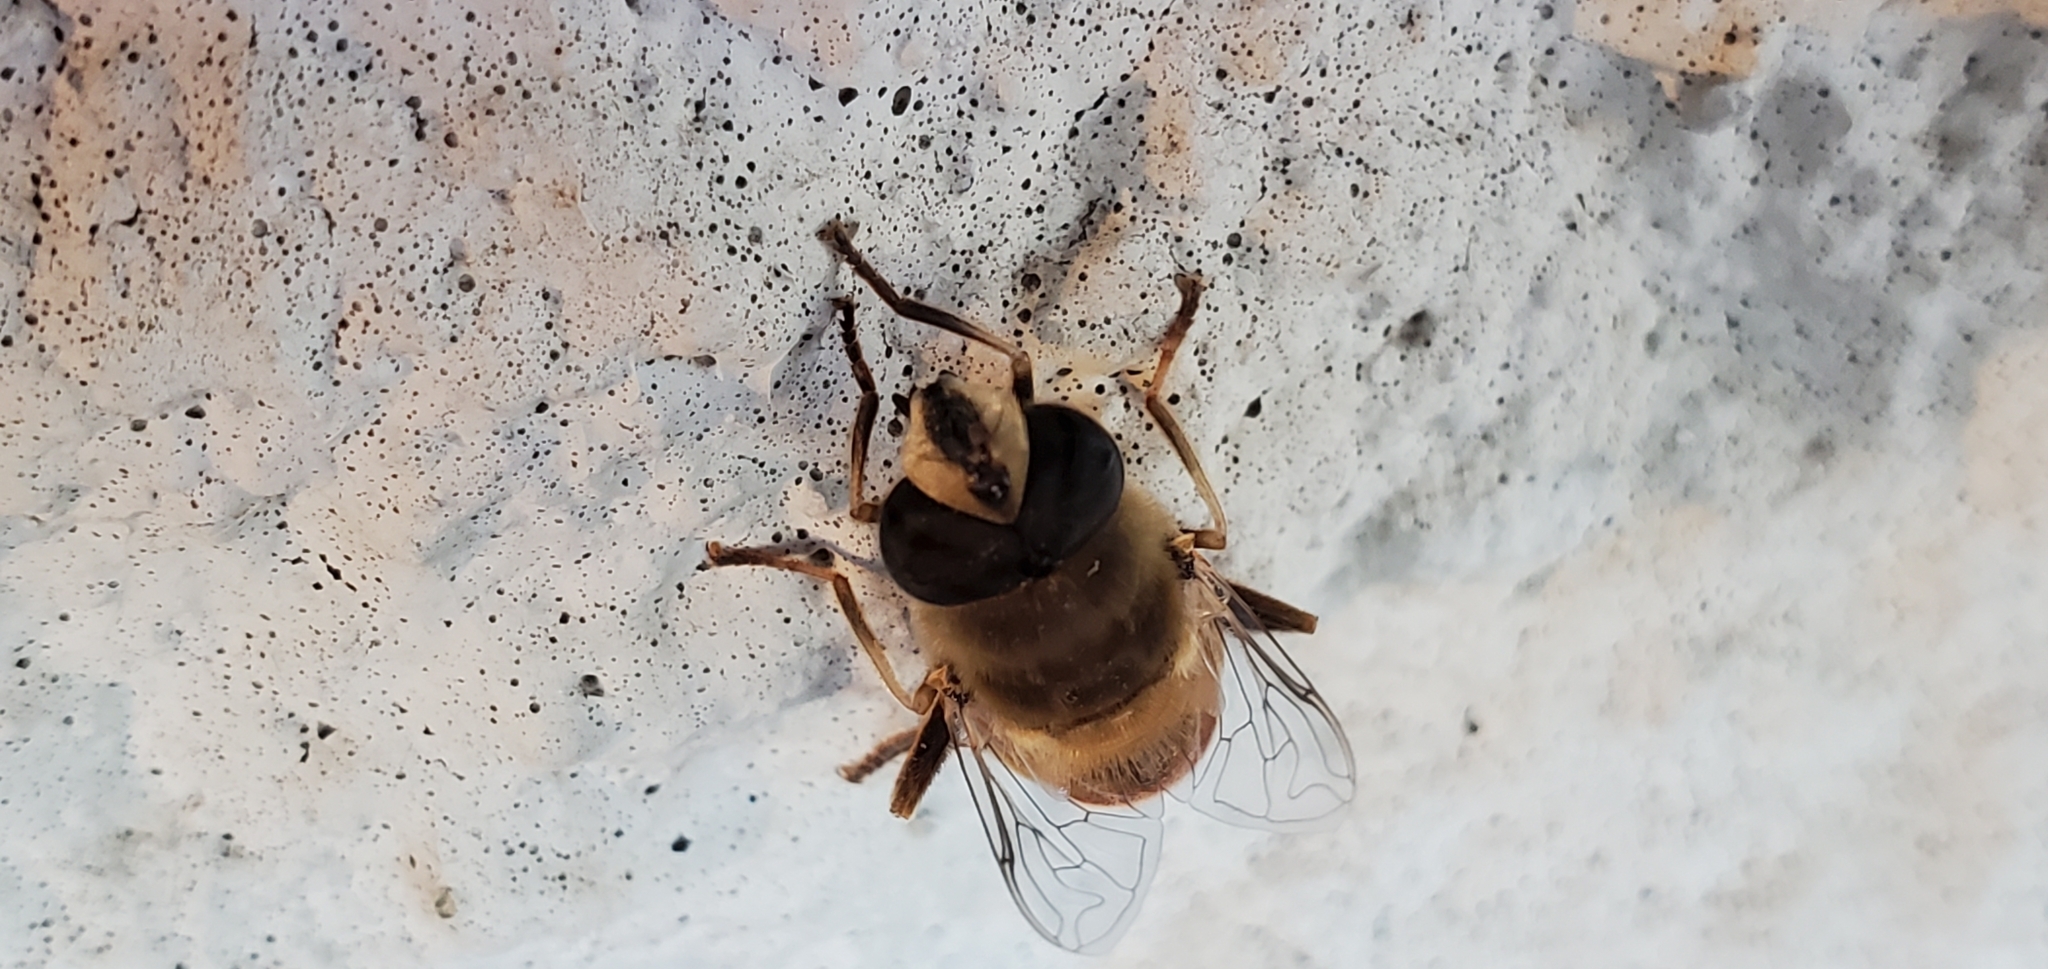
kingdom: Animalia
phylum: Arthropoda
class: Insecta
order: Diptera
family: Syrphidae
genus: Eristalis
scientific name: Eristalis tenax
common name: Drone fly
